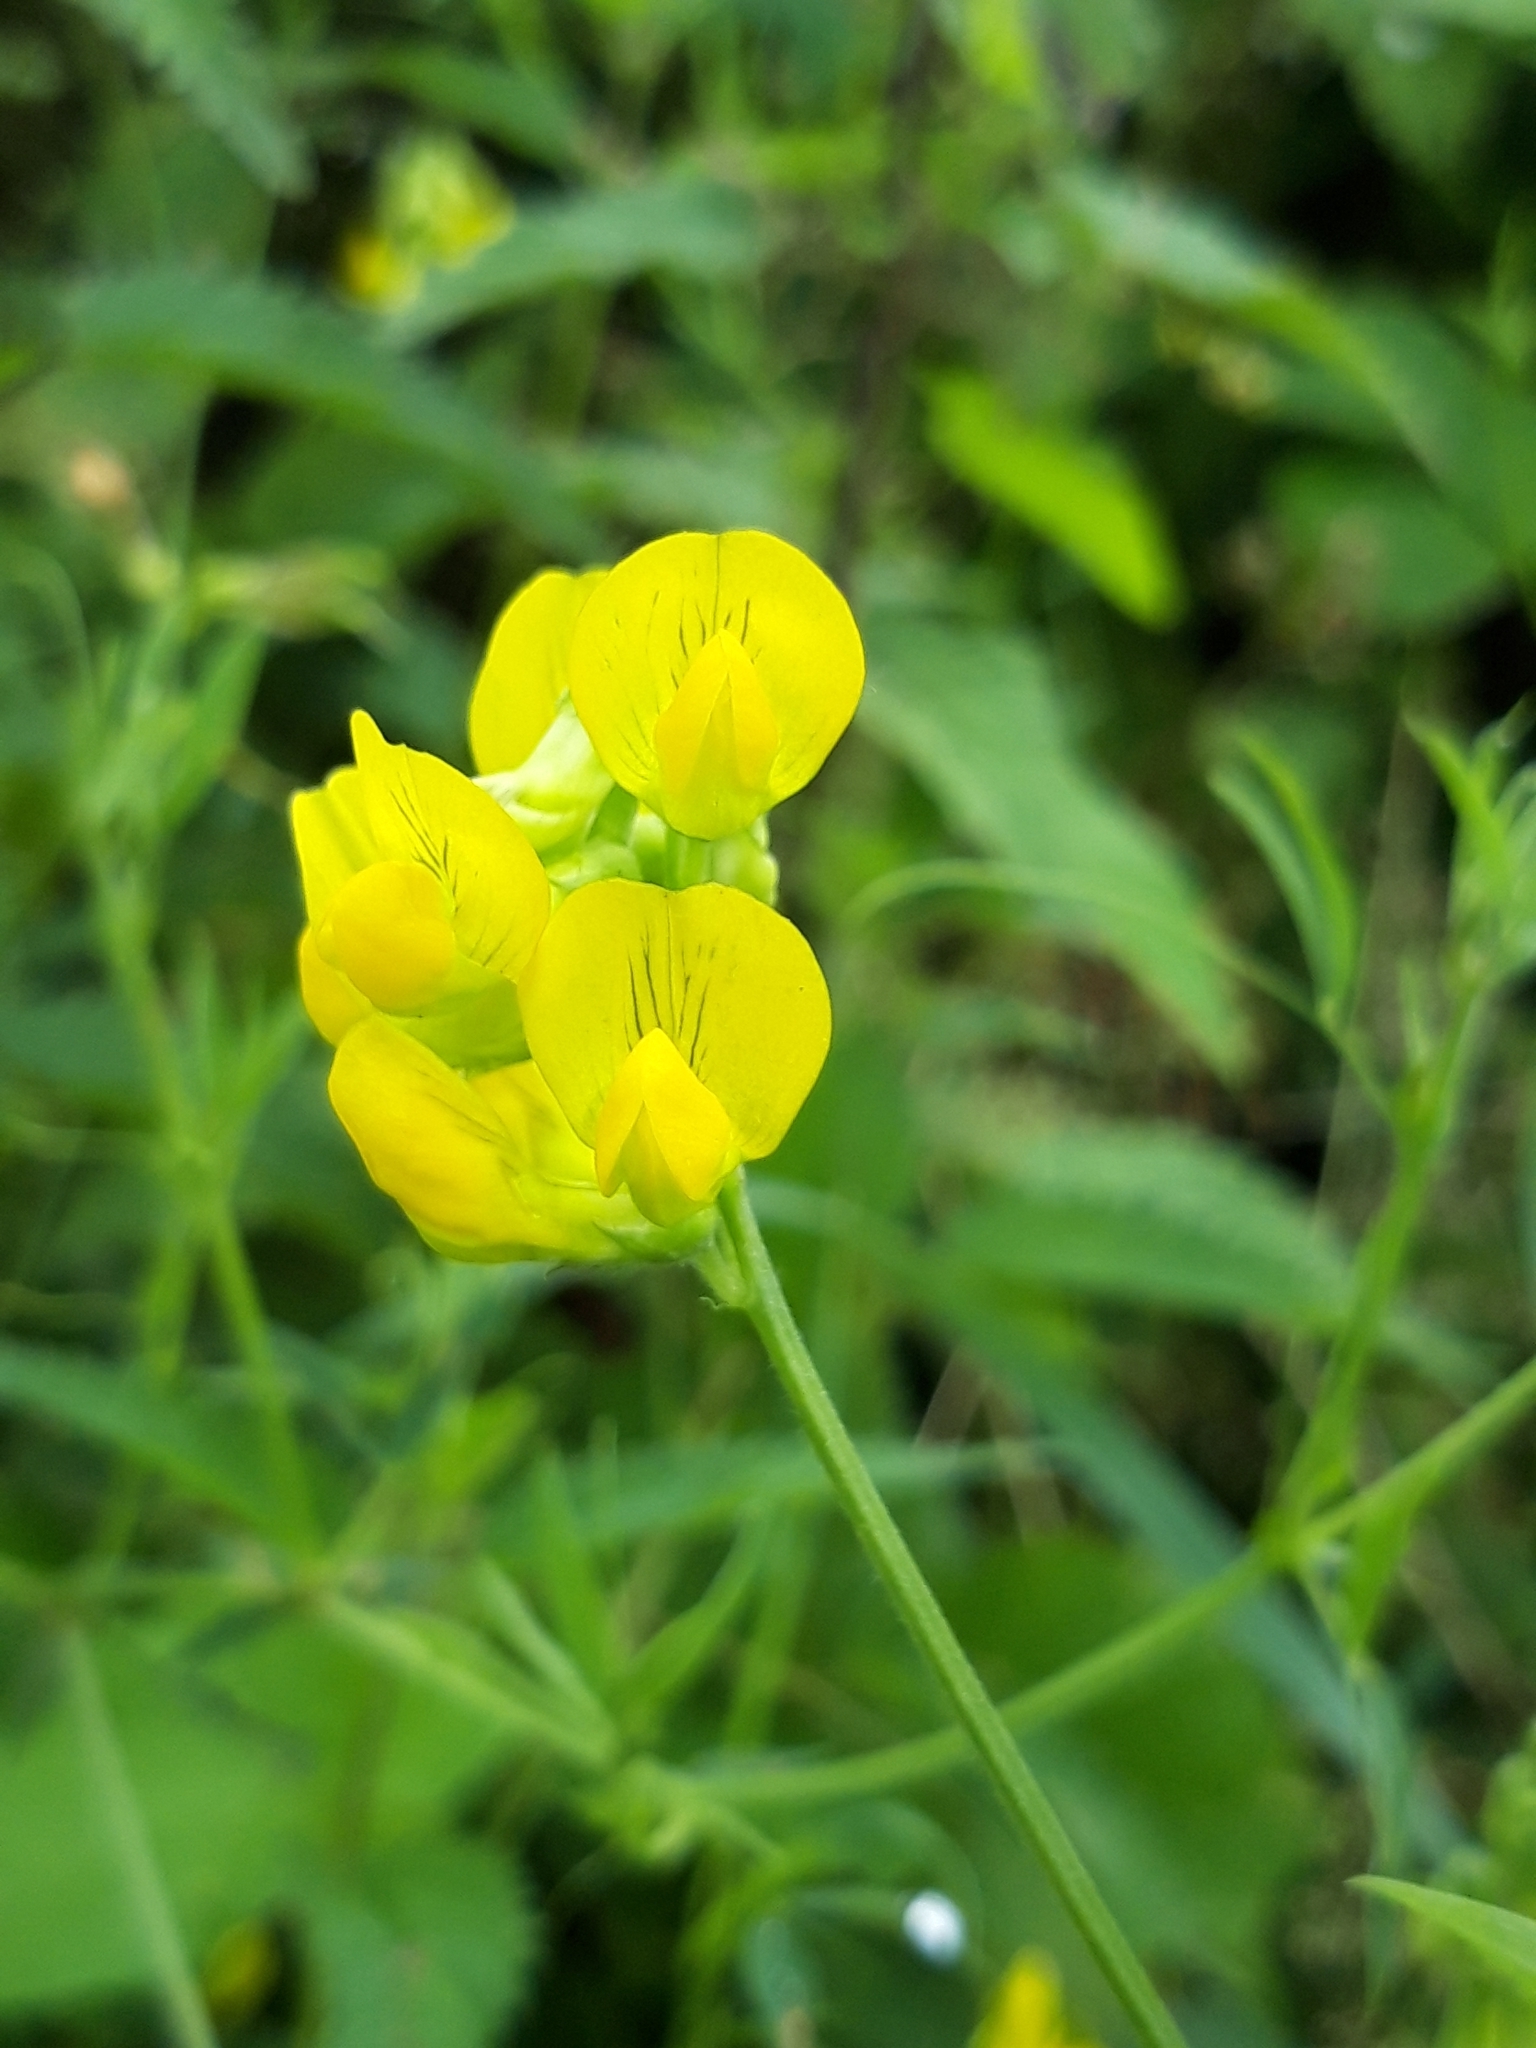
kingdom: Plantae
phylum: Tracheophyta
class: Magnoliopsida
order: Fabales
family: Fabaceae
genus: Lathyrus
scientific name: Lathyrus pratensis
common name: Meadow vetchling
